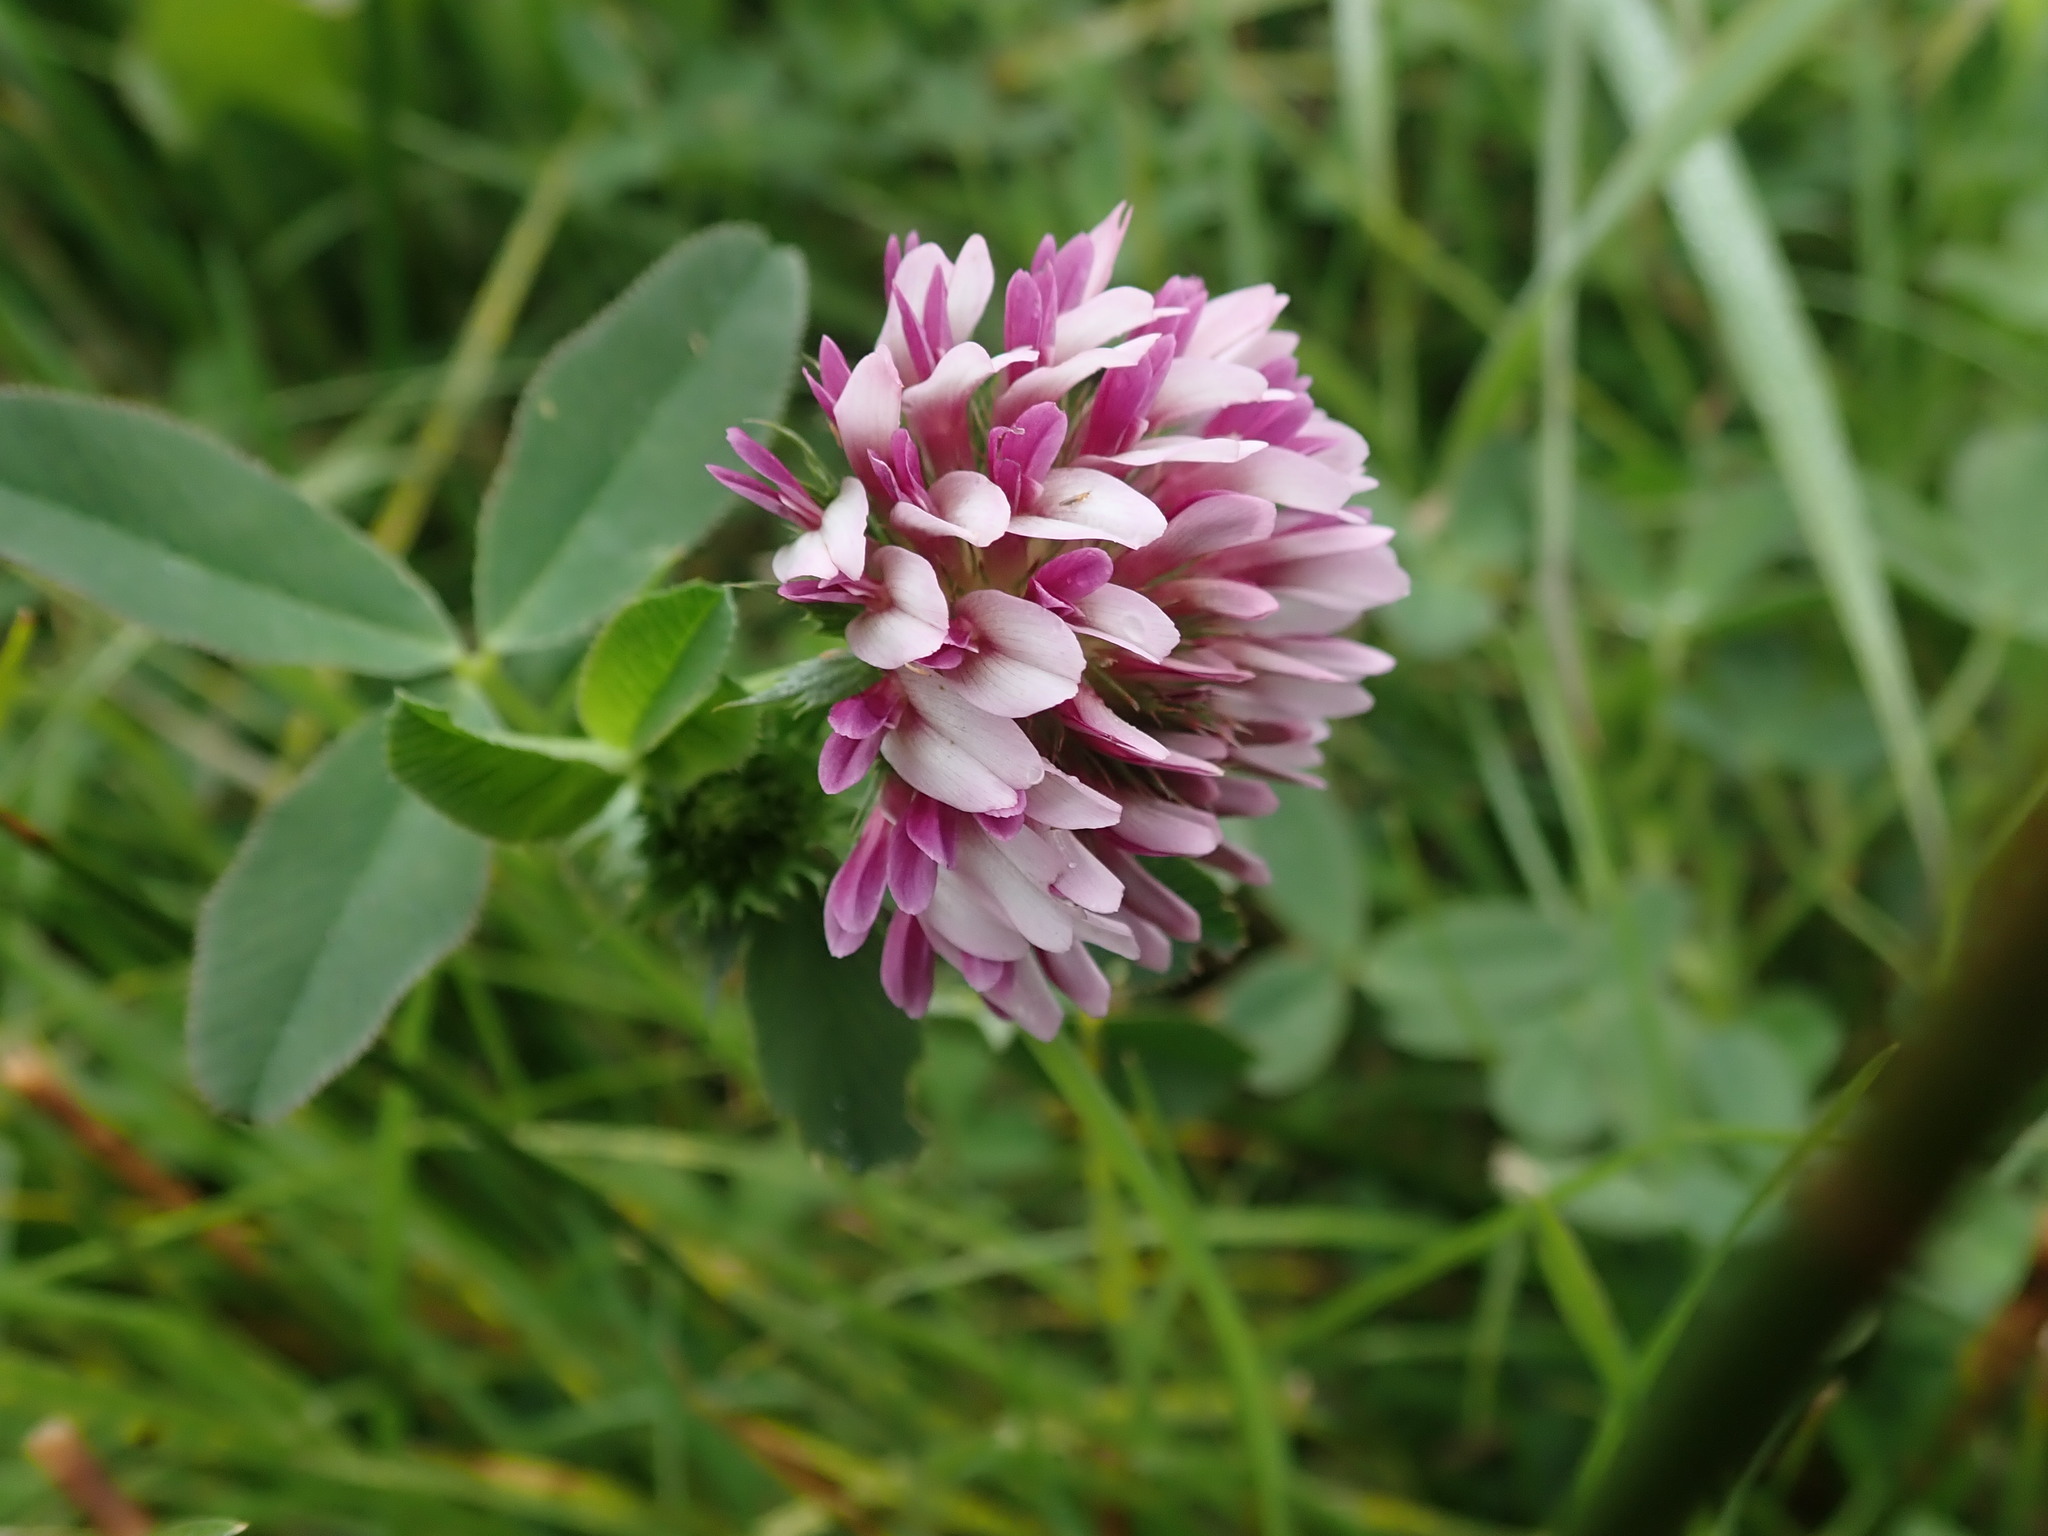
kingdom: Plantae
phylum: Tracheophyta
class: Magnoliopsida
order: Fabales
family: Fabaceae
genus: Trifolium
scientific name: Trifolium wormskioldii
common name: Springbank clover
